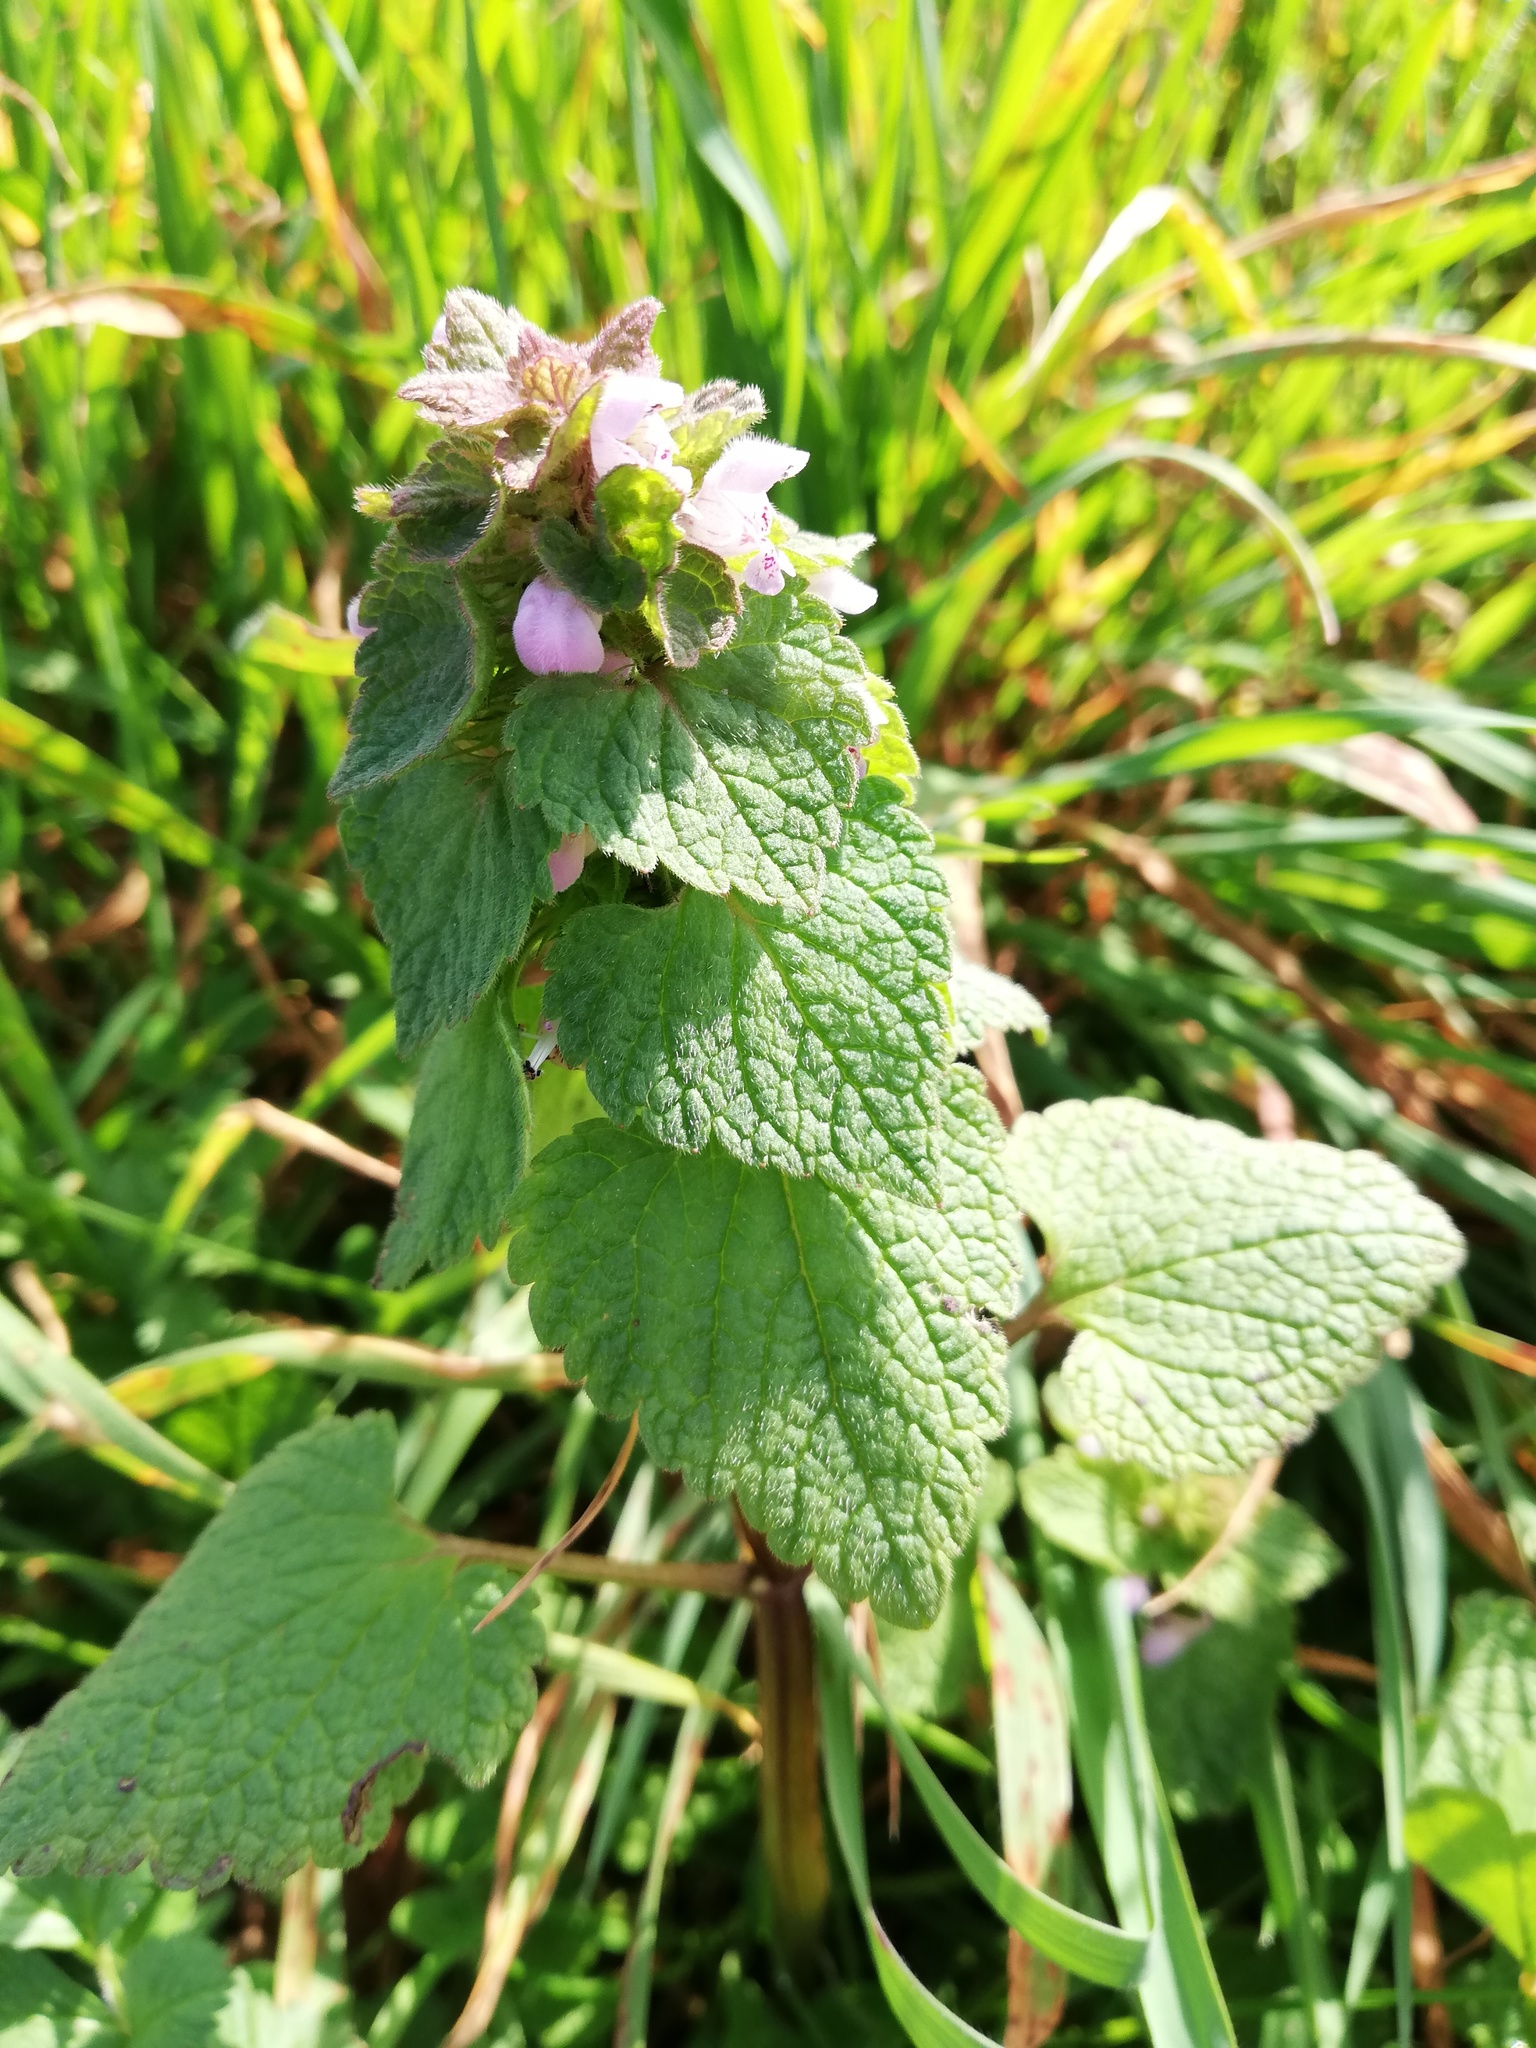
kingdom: Plantae
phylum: Tracheophyta
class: Magnoliopsida
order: Lamiales
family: Lamiaceae
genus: Lamium
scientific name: Lamium purpureum
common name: Red dead-nettle
